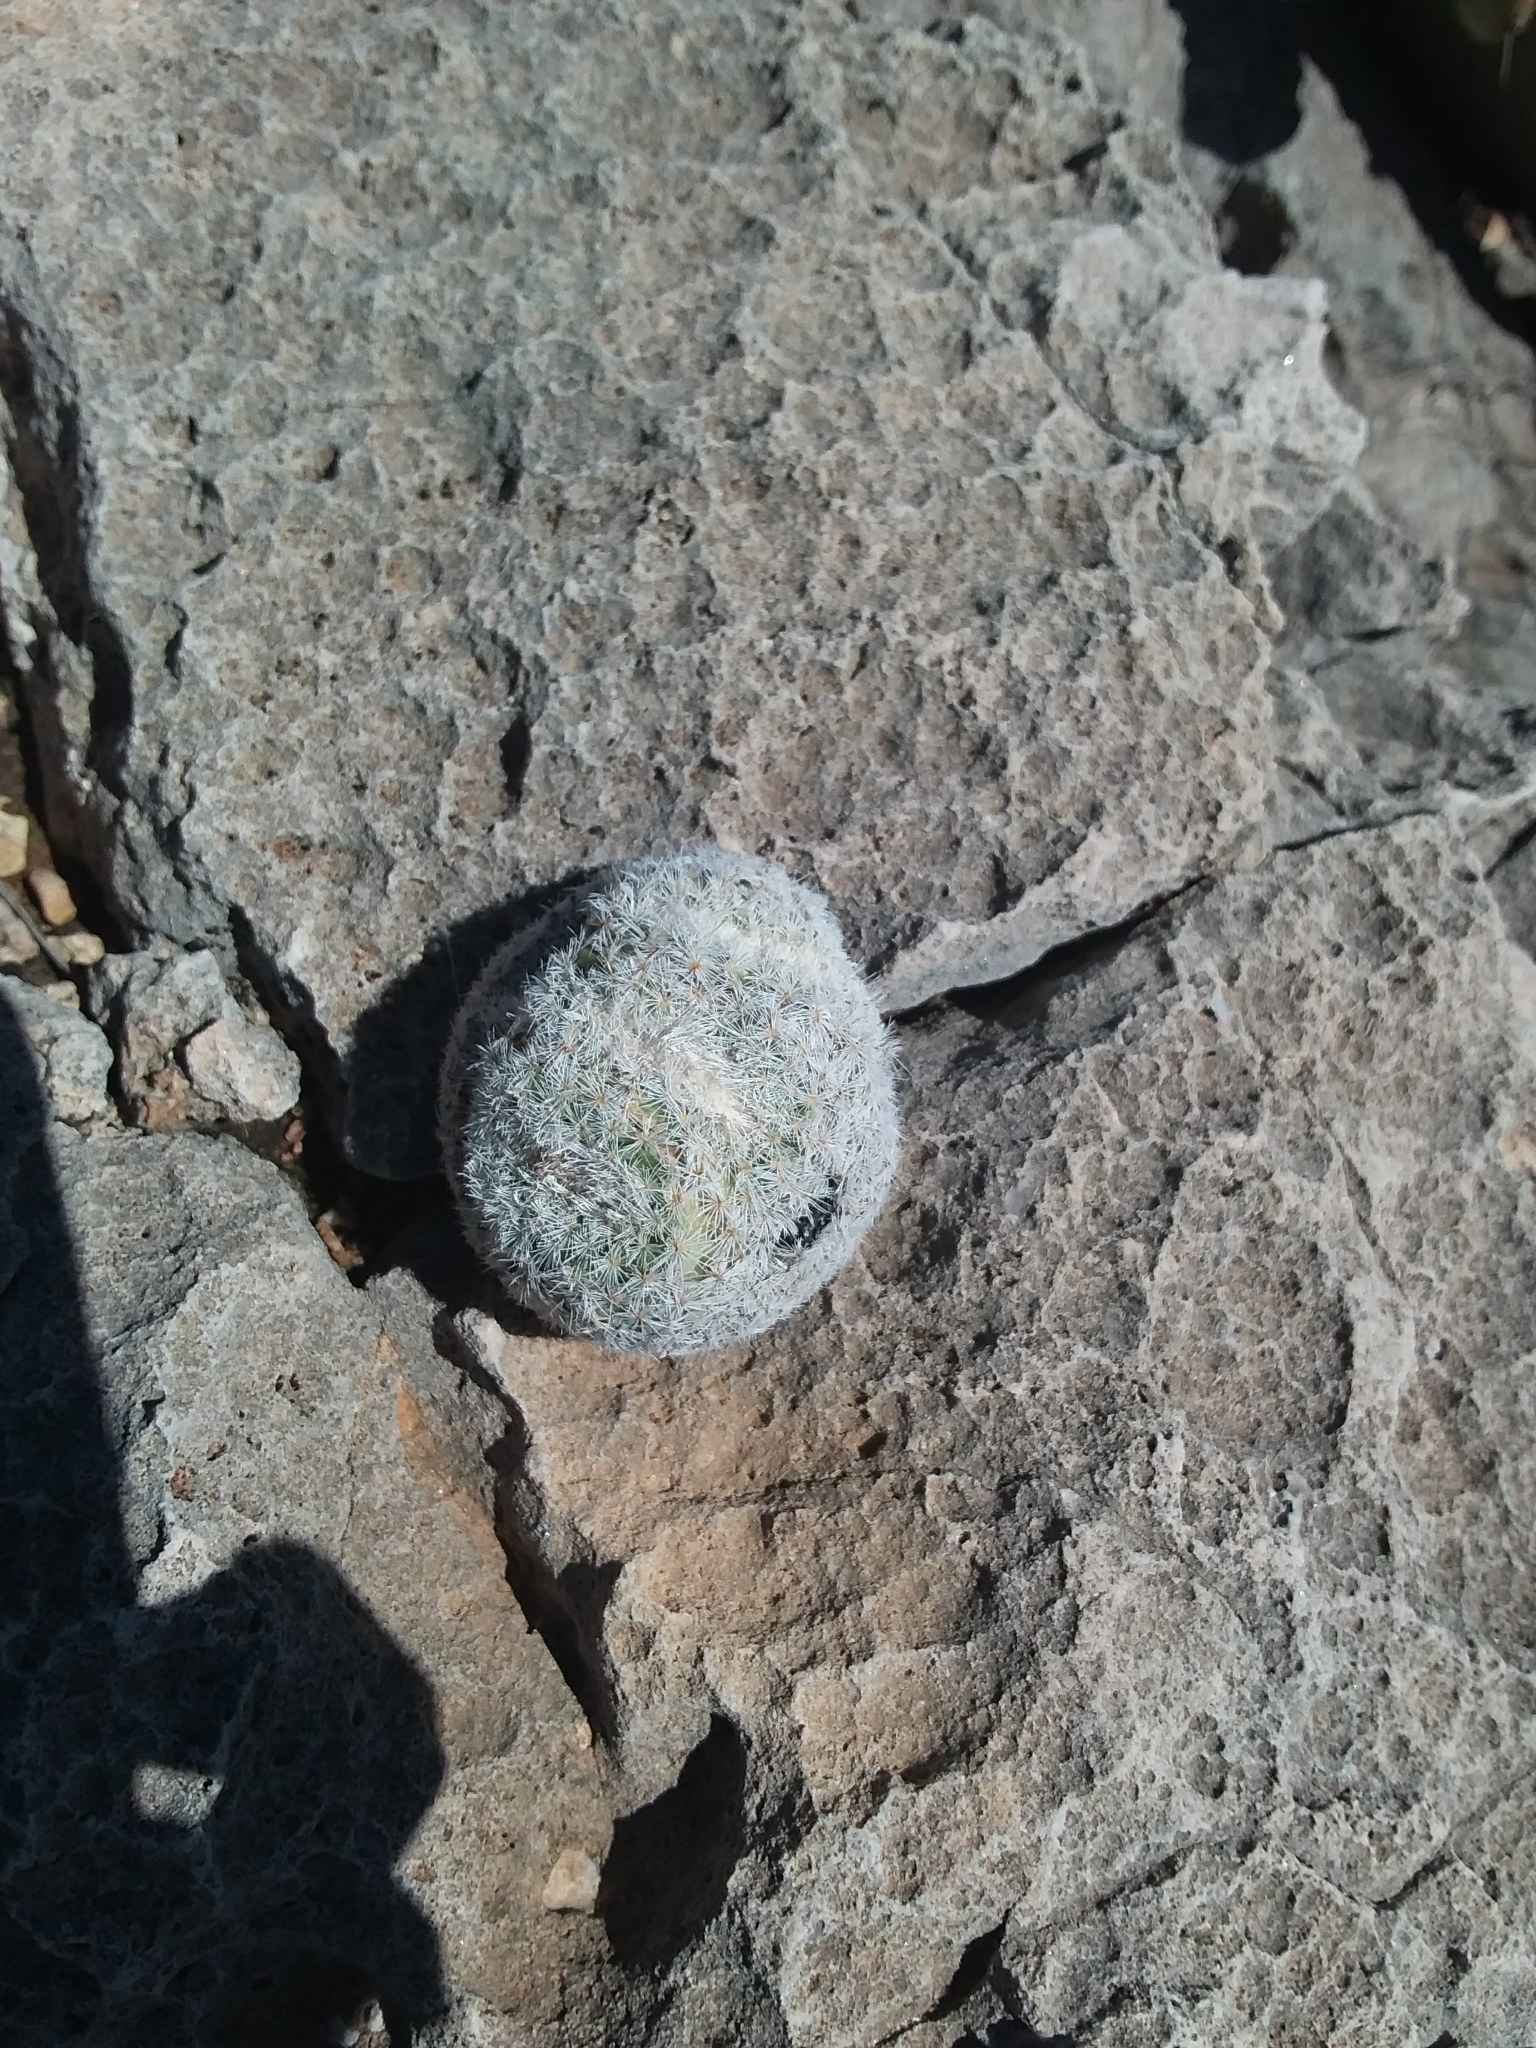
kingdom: Plantae
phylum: Tracheophyta
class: Magnoliopsida
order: Caryophyllales
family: Cactaceae
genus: Epithelantha
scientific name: Epithelantha micromeris
